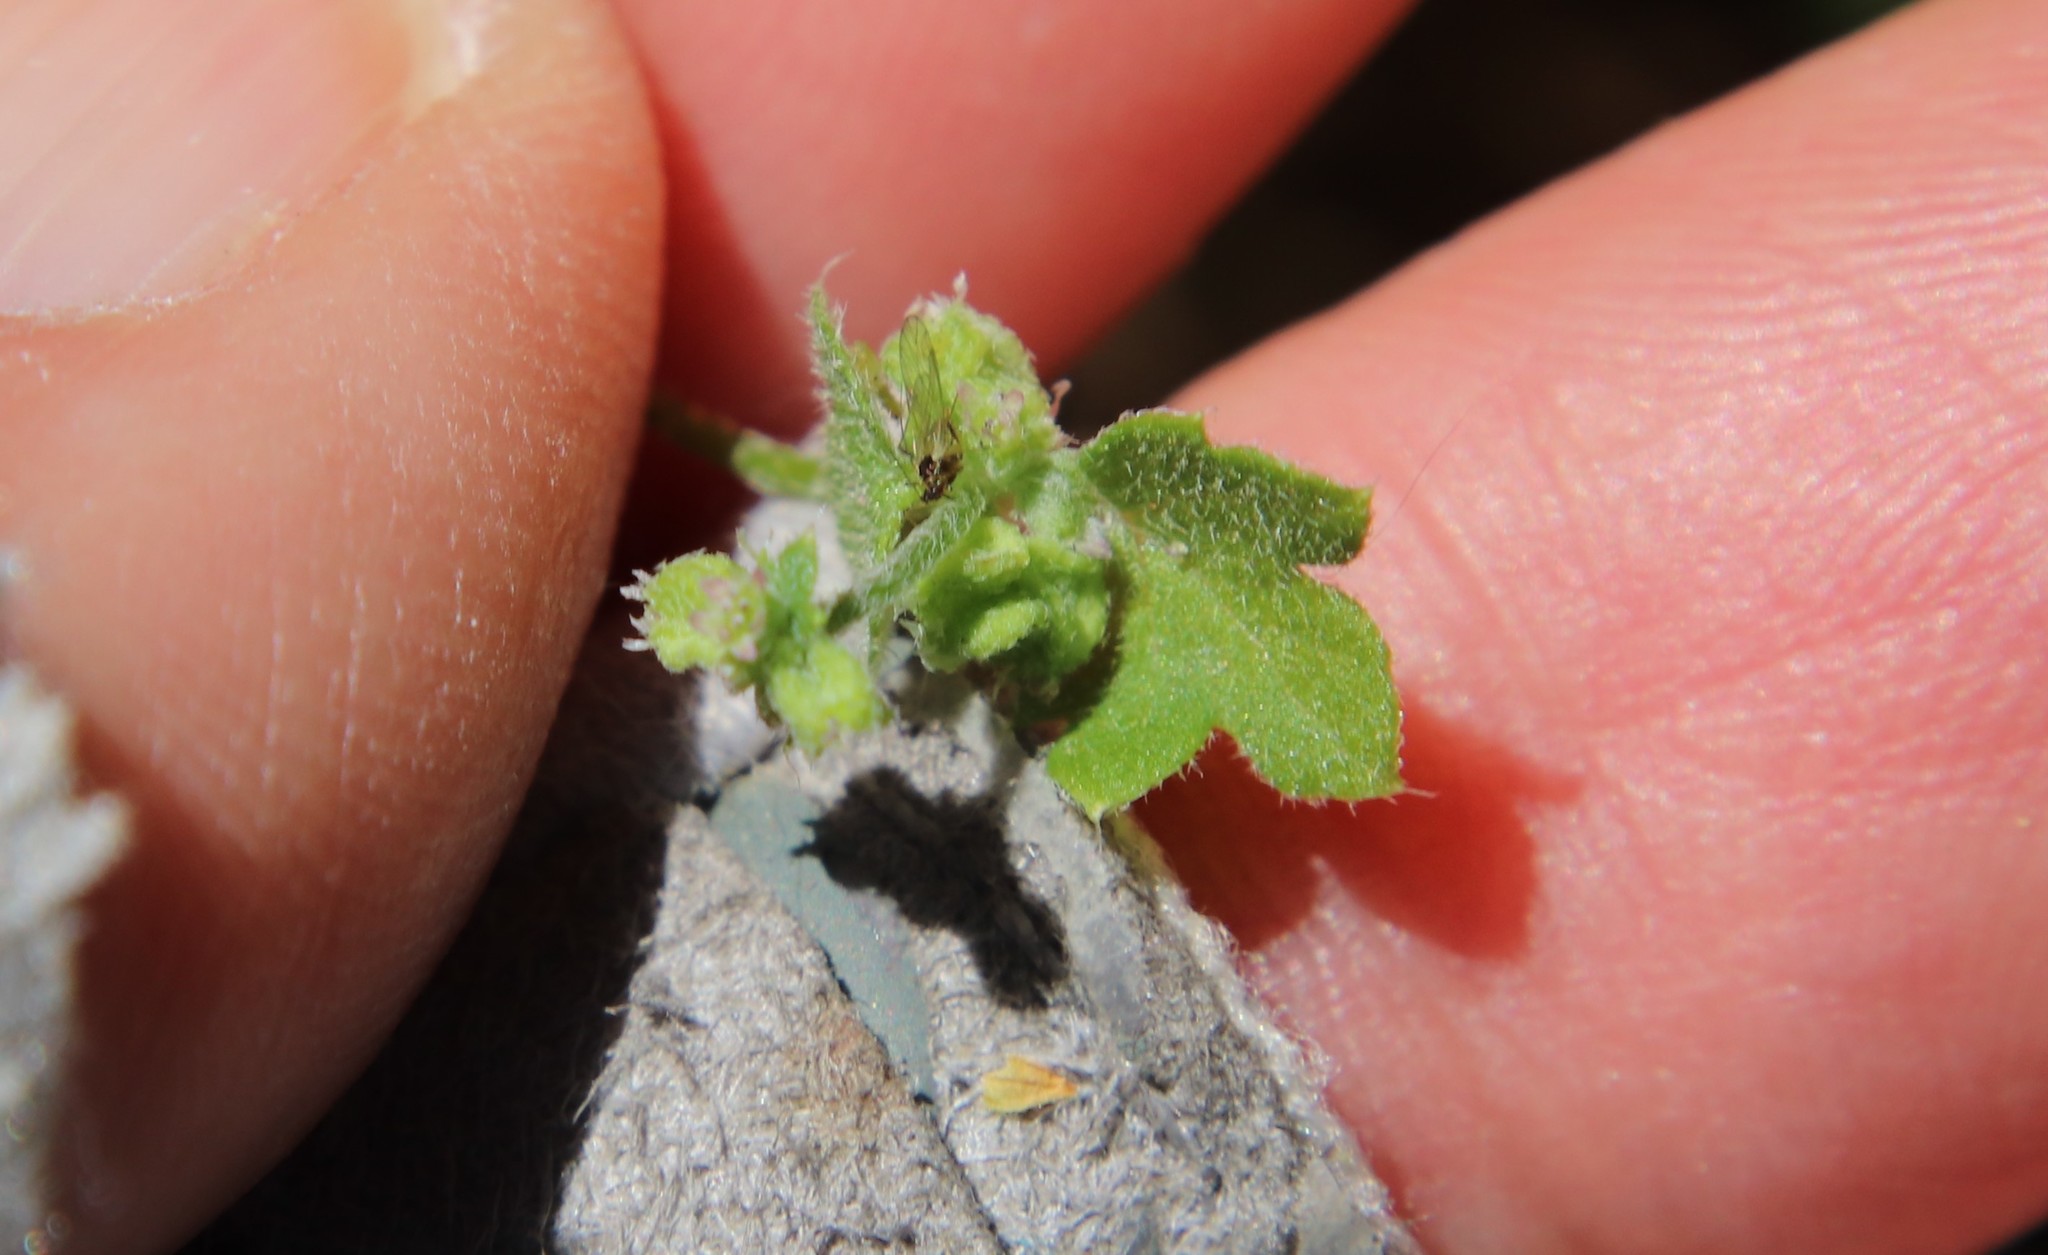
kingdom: Plantae
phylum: Tracheophyta
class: Magnoliopsida
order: Apiales
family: Apiaceae
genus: Bowlesia
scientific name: Bowlesia incana
